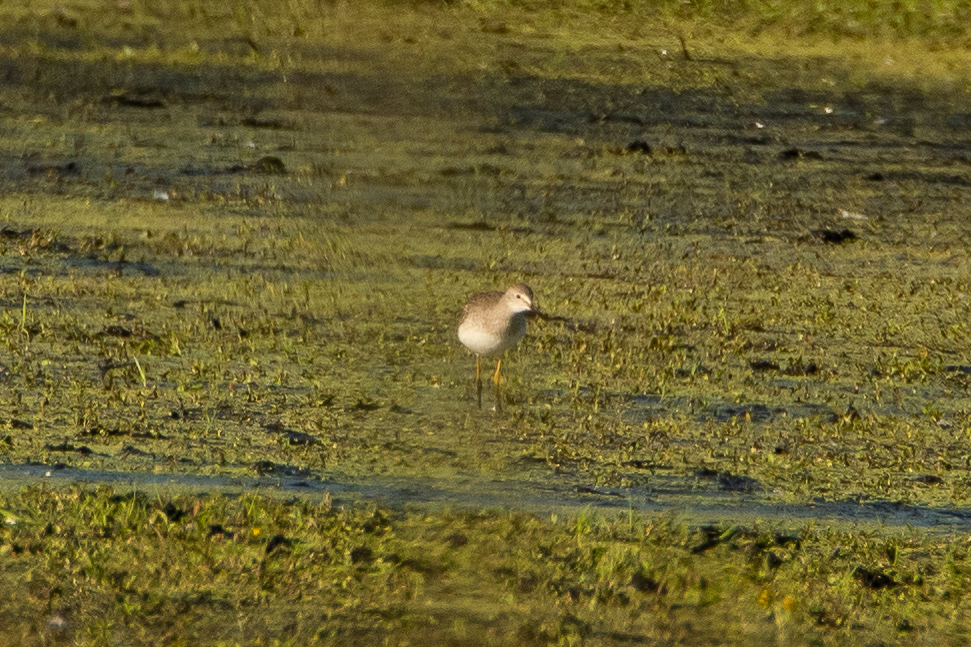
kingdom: Animalia
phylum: Chordata
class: Aves
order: Charadriiformes
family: Scolopacidae
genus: Tringa
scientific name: Tringa flavipes
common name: Lesser yellowlegs
